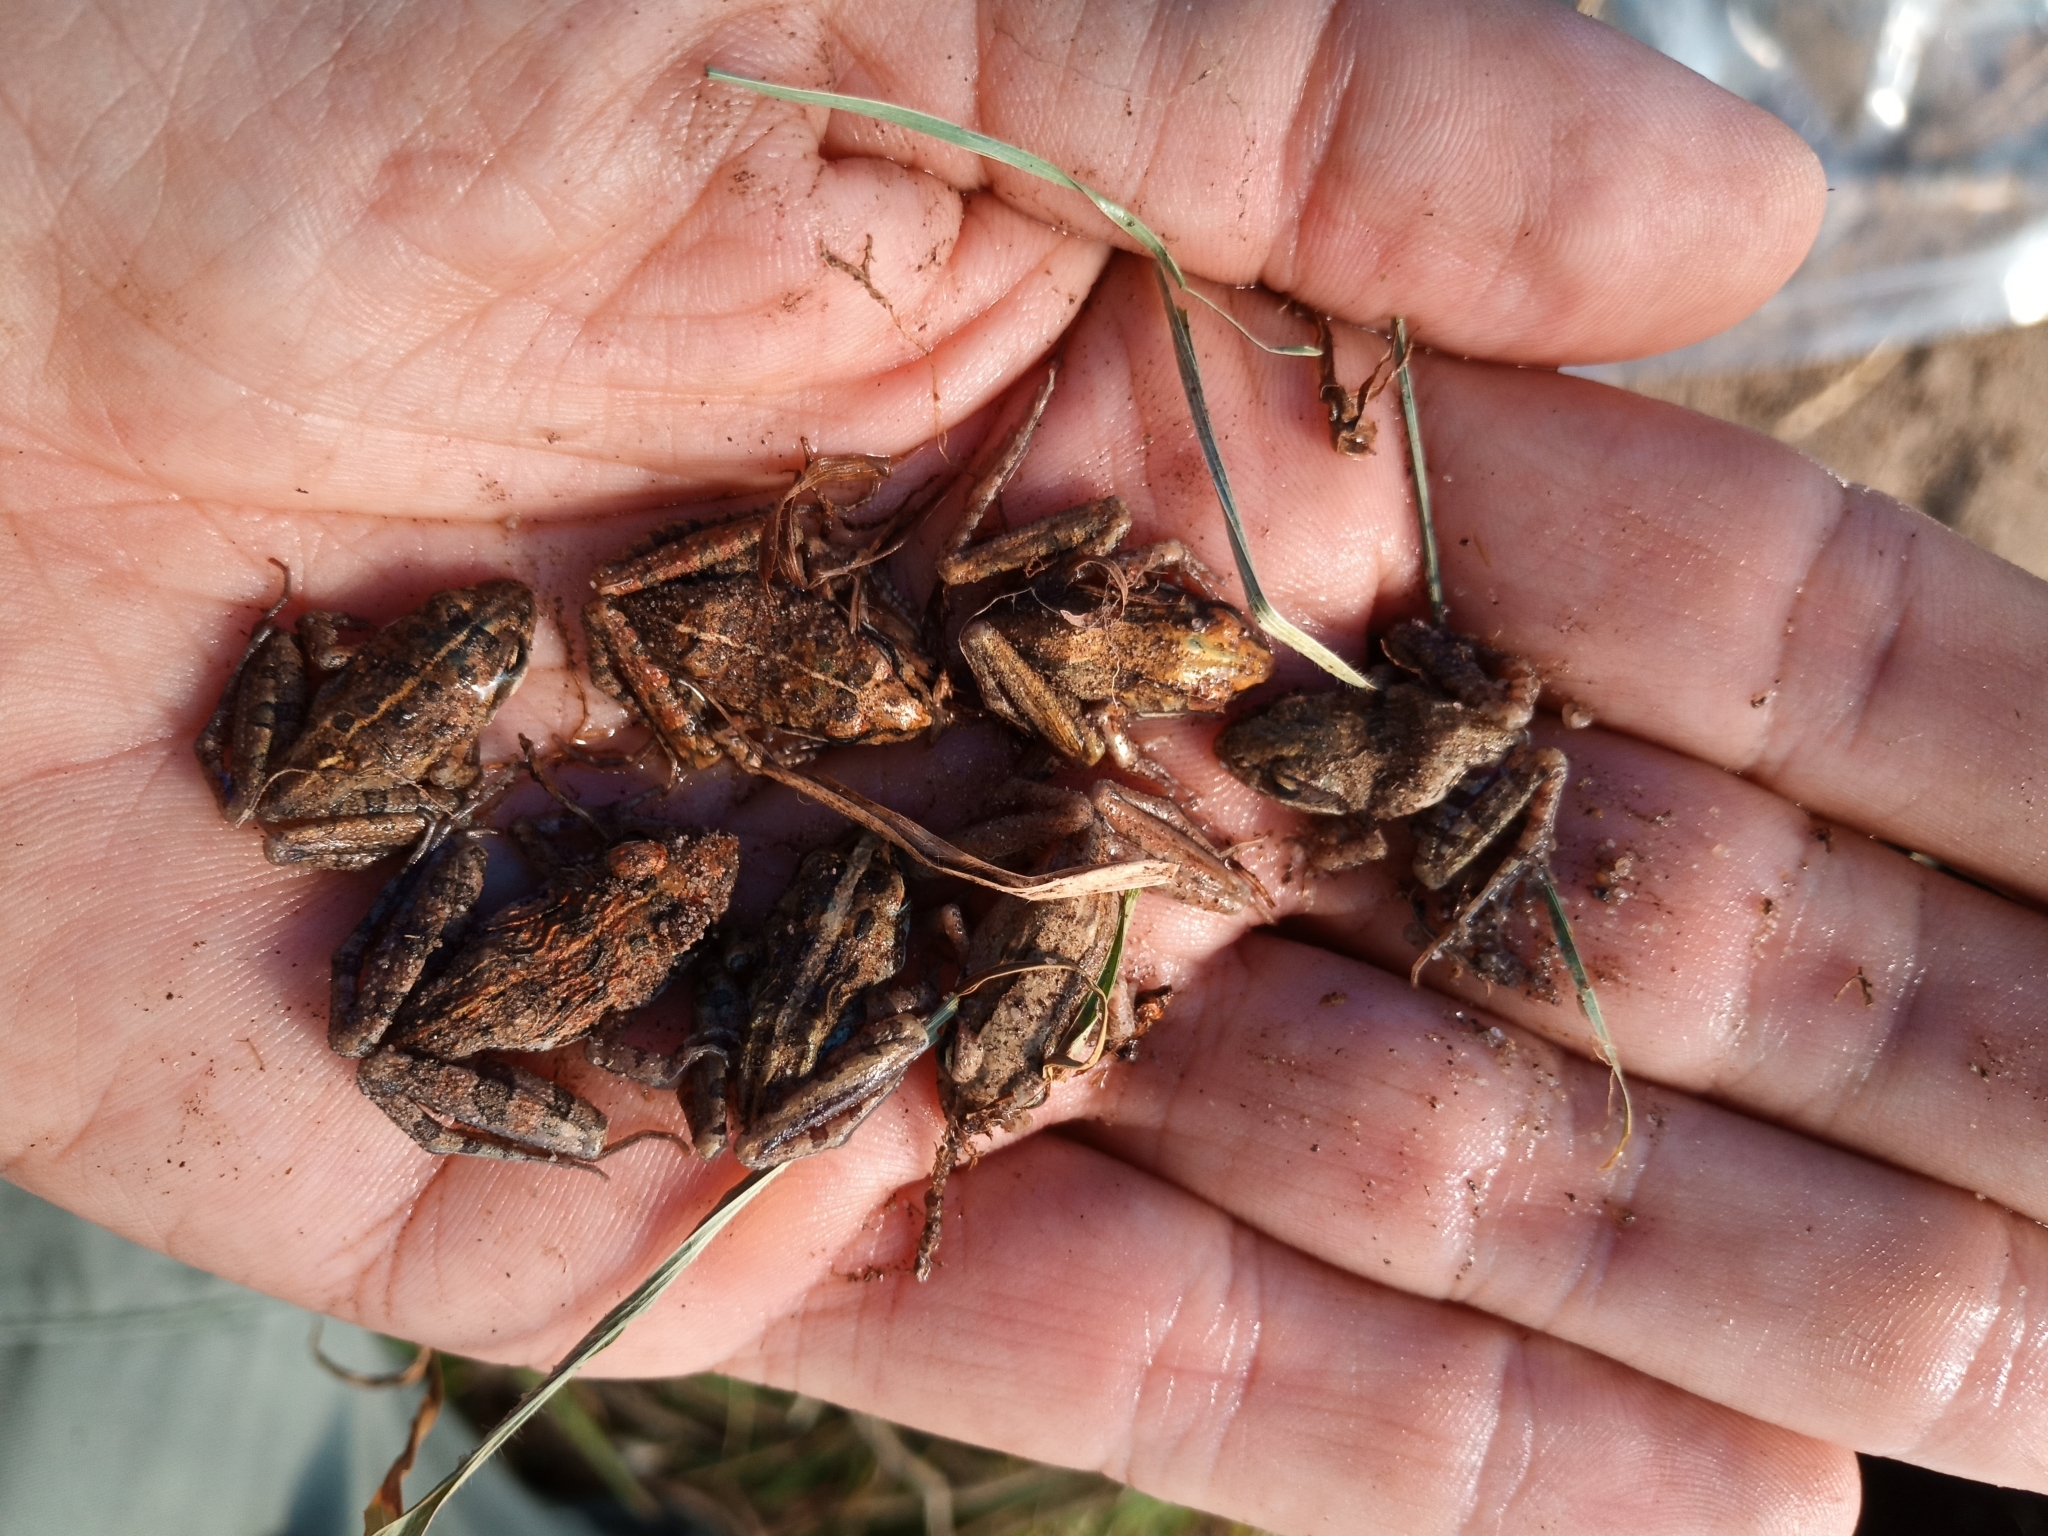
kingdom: Animalia
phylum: Chordata
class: Amphibia
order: Anura
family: Pyxicephalidae
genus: Strongylopus
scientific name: Strongylopus grayii
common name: Gray's stream frog
